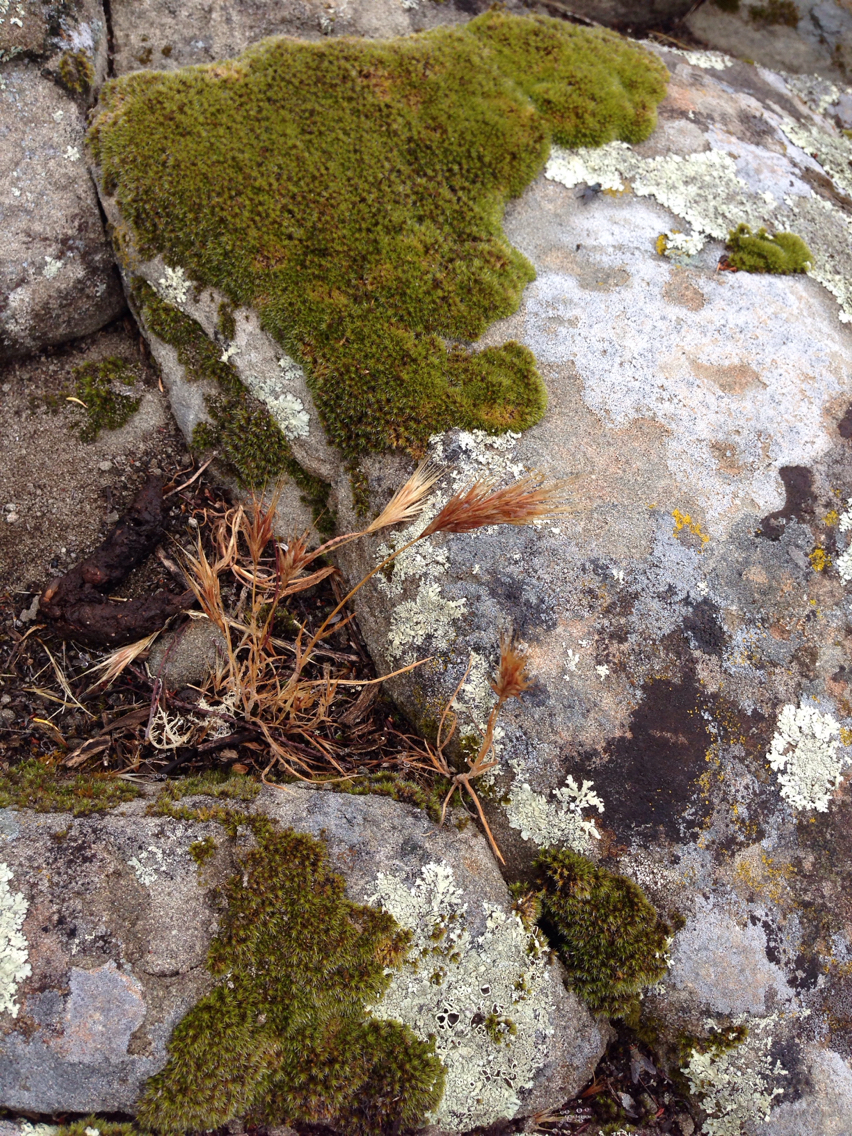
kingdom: Plantae
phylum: Tracheophyta
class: Liliopsida
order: Poales
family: Poaceae
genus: Bromus
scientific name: Bromus madritensis
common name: Compact brome
